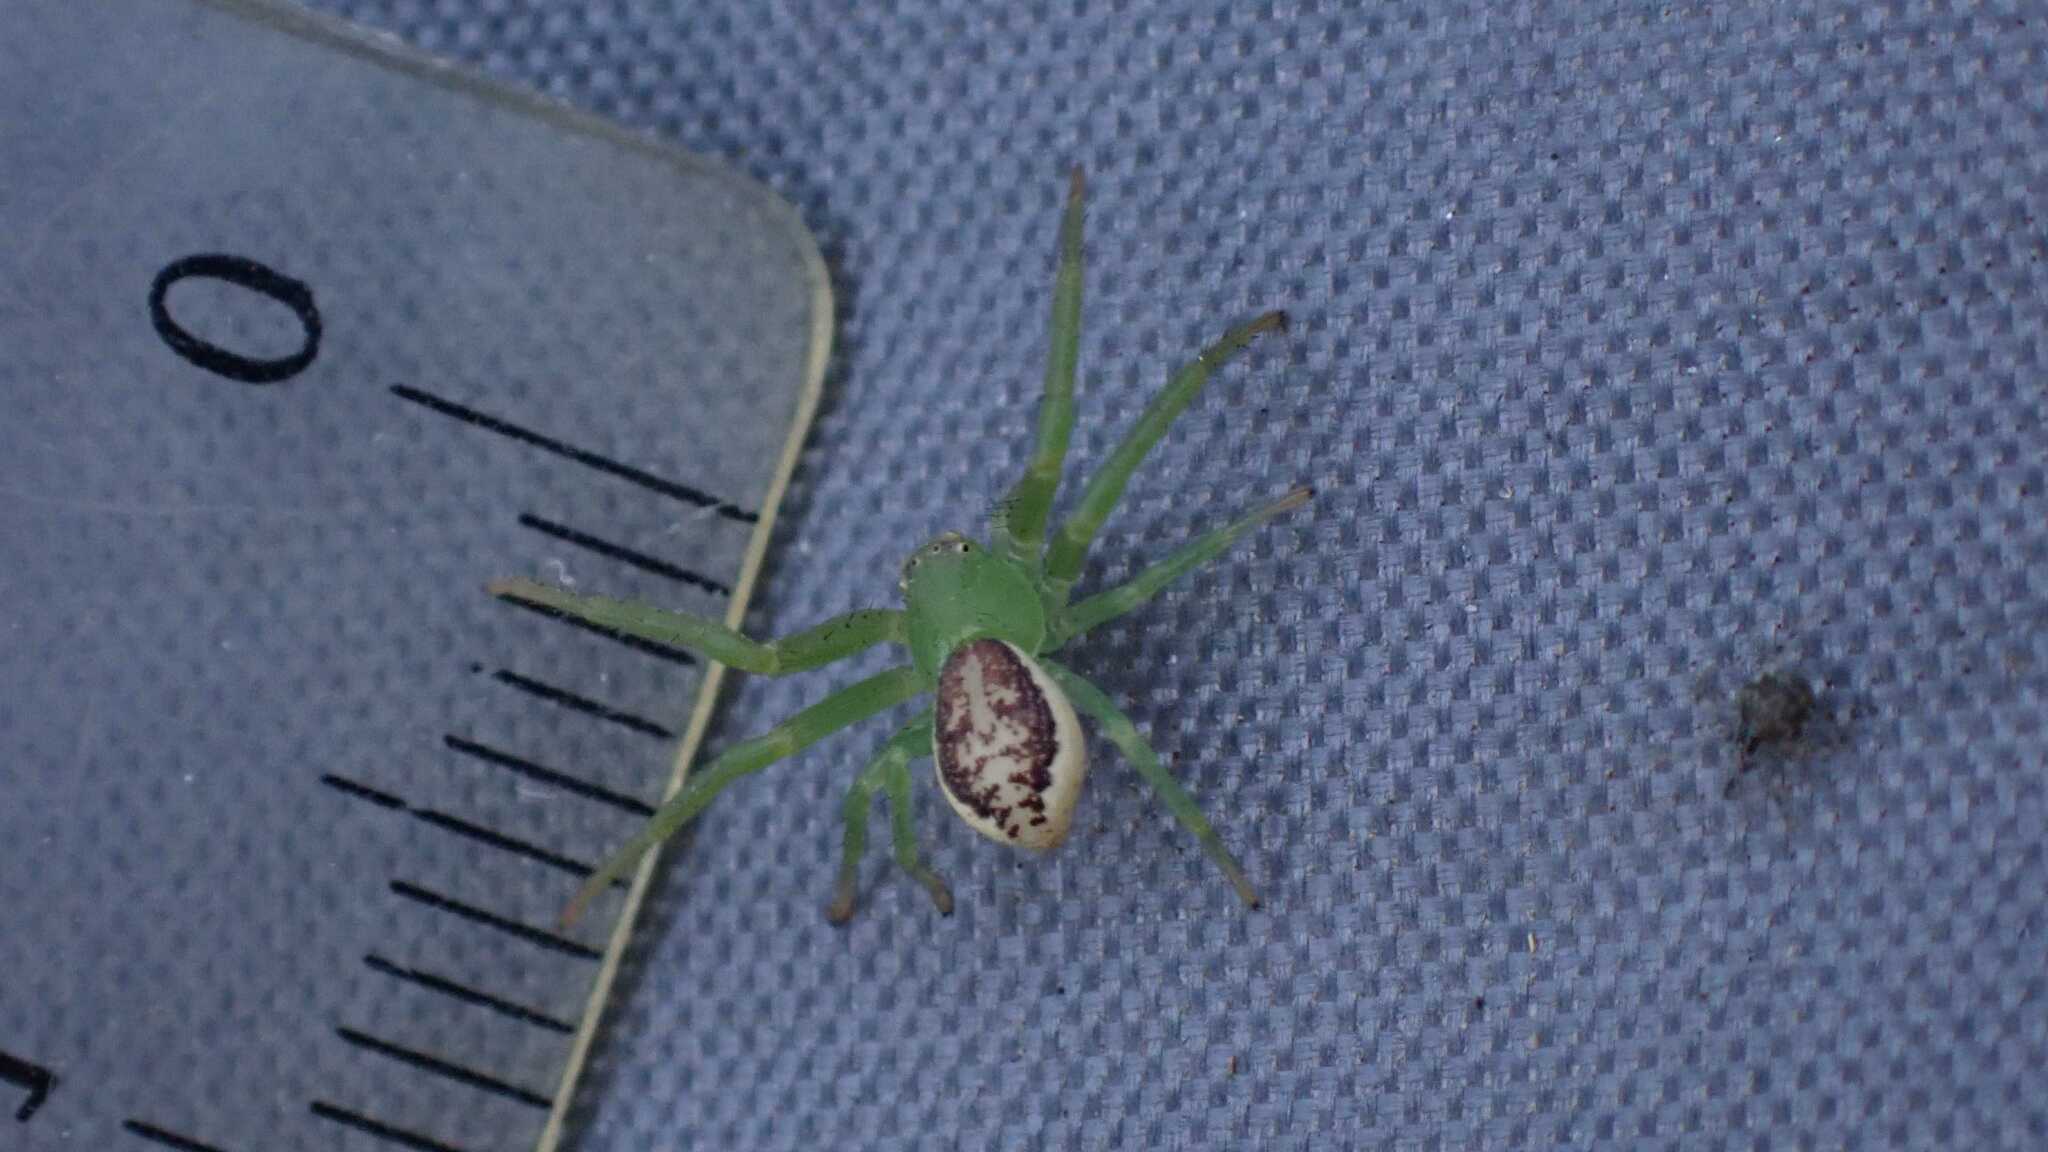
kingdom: Animalia
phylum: Arthropoda
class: Arachnida
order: Araneae
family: Thomisidae
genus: Diaea
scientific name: Diaea dorsata
